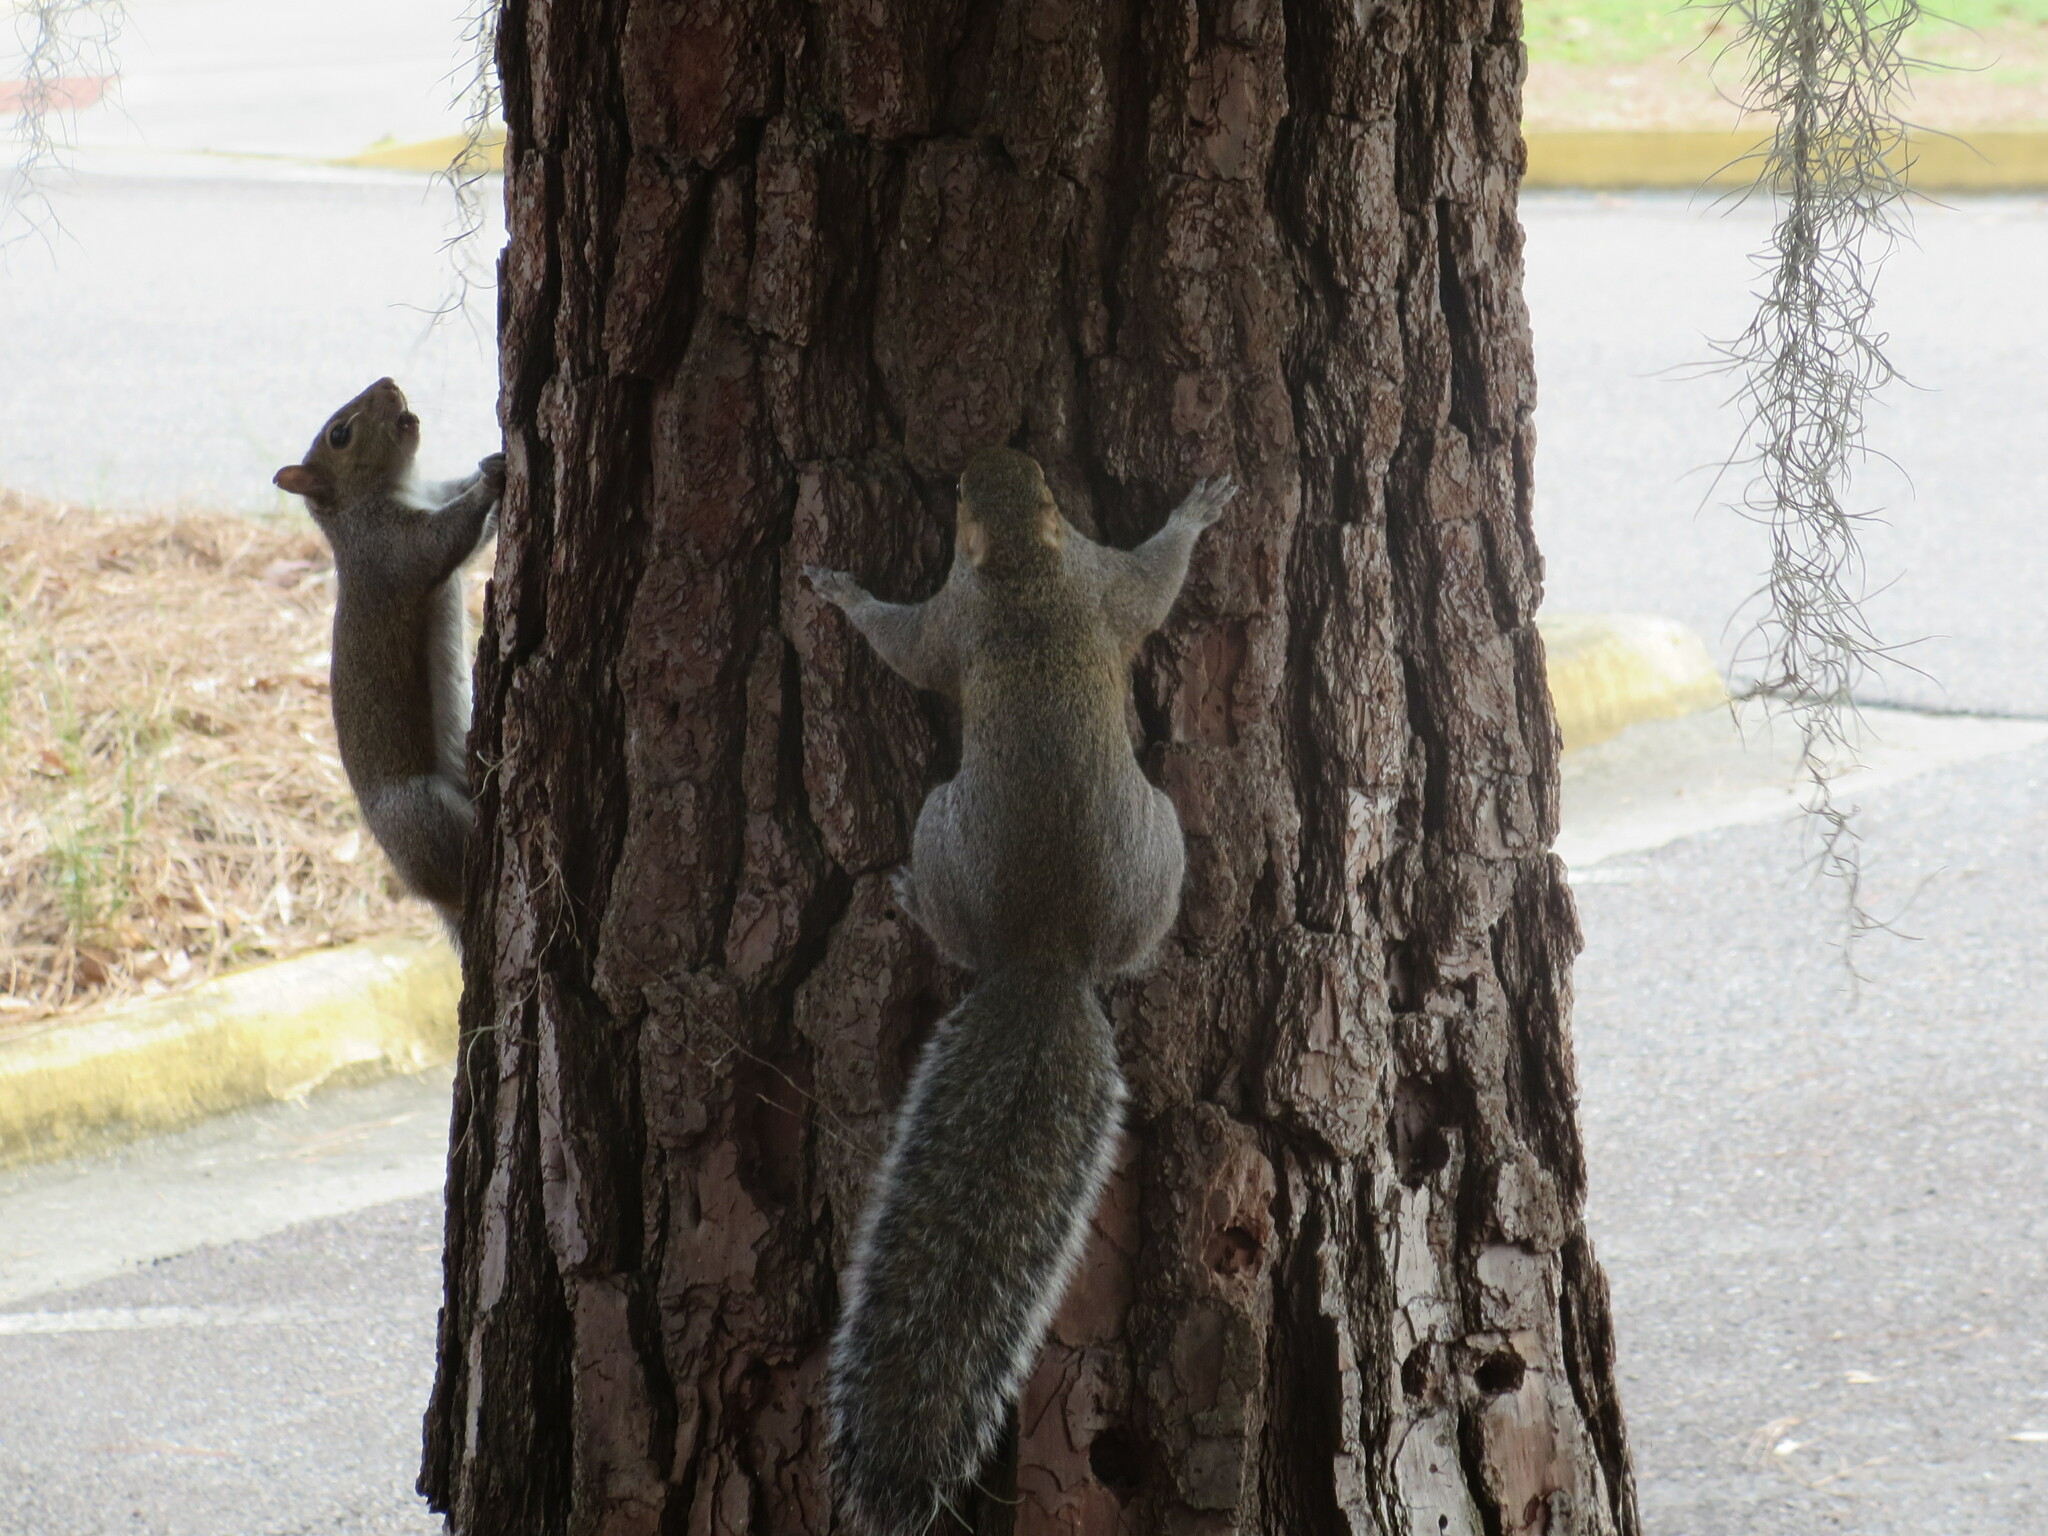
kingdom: Animalia
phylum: Chordata
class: Mammalia
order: Rodentia
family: Sciuridae
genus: Sciurus
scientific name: Sciurus carolinensis
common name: Eastern gray squirrel
